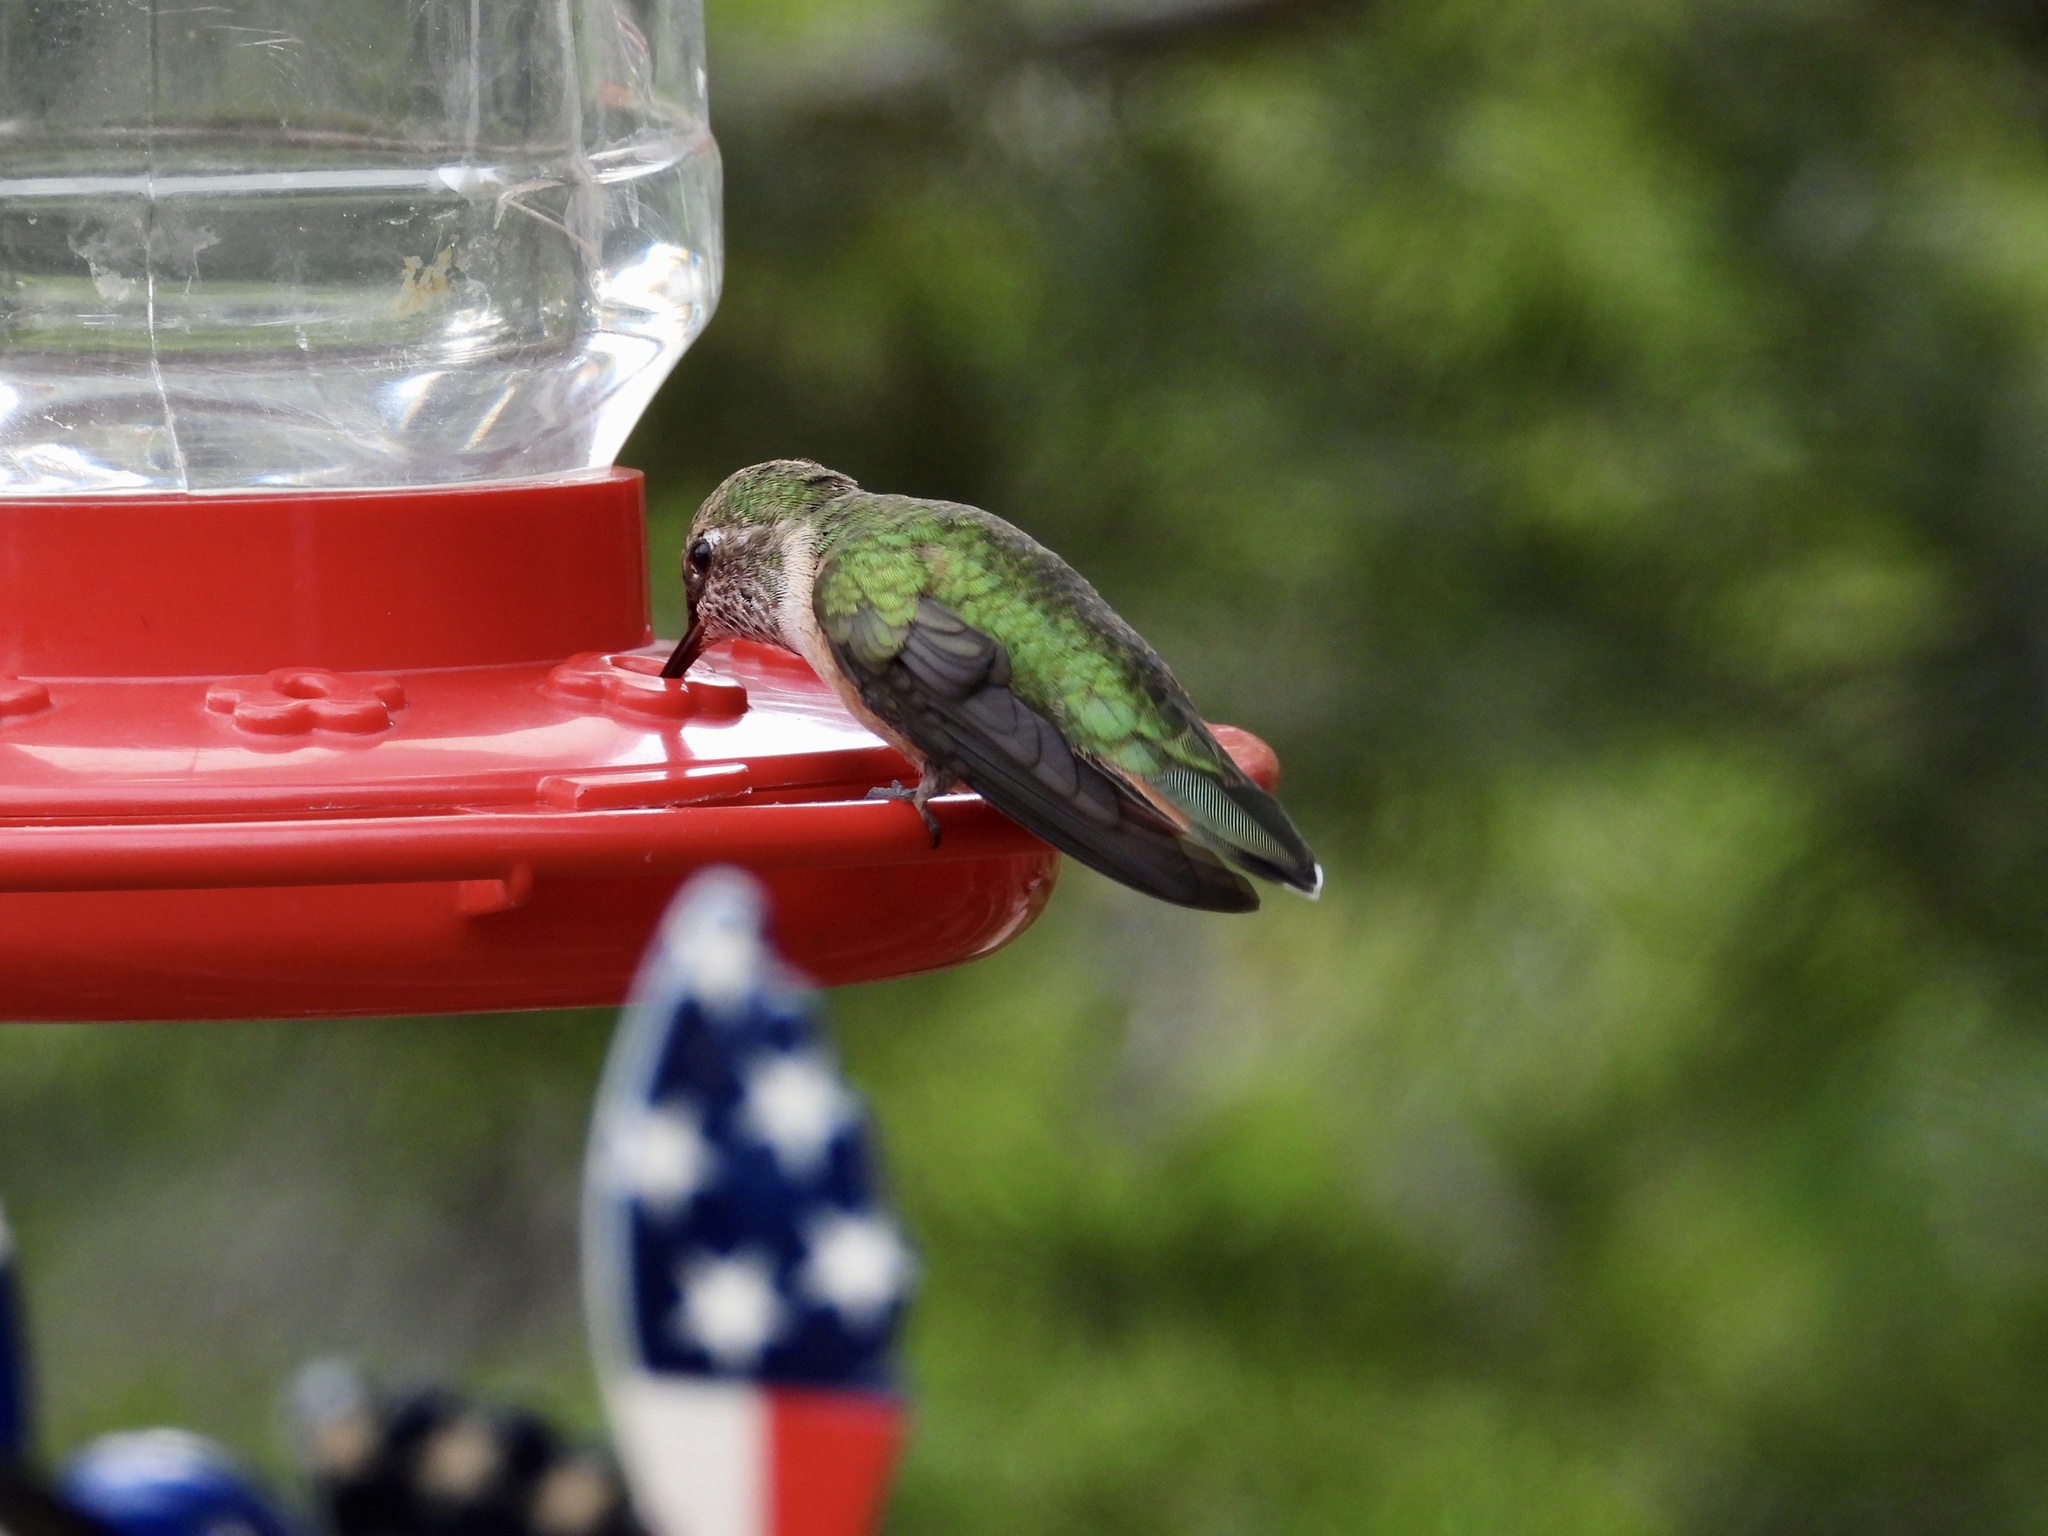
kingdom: Animalia
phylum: Chordata
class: Aves
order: Apodiformes
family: Trochilidae
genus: Selasphorus
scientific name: Selasphorus platycercus
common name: Broad-tailed hummingbird
